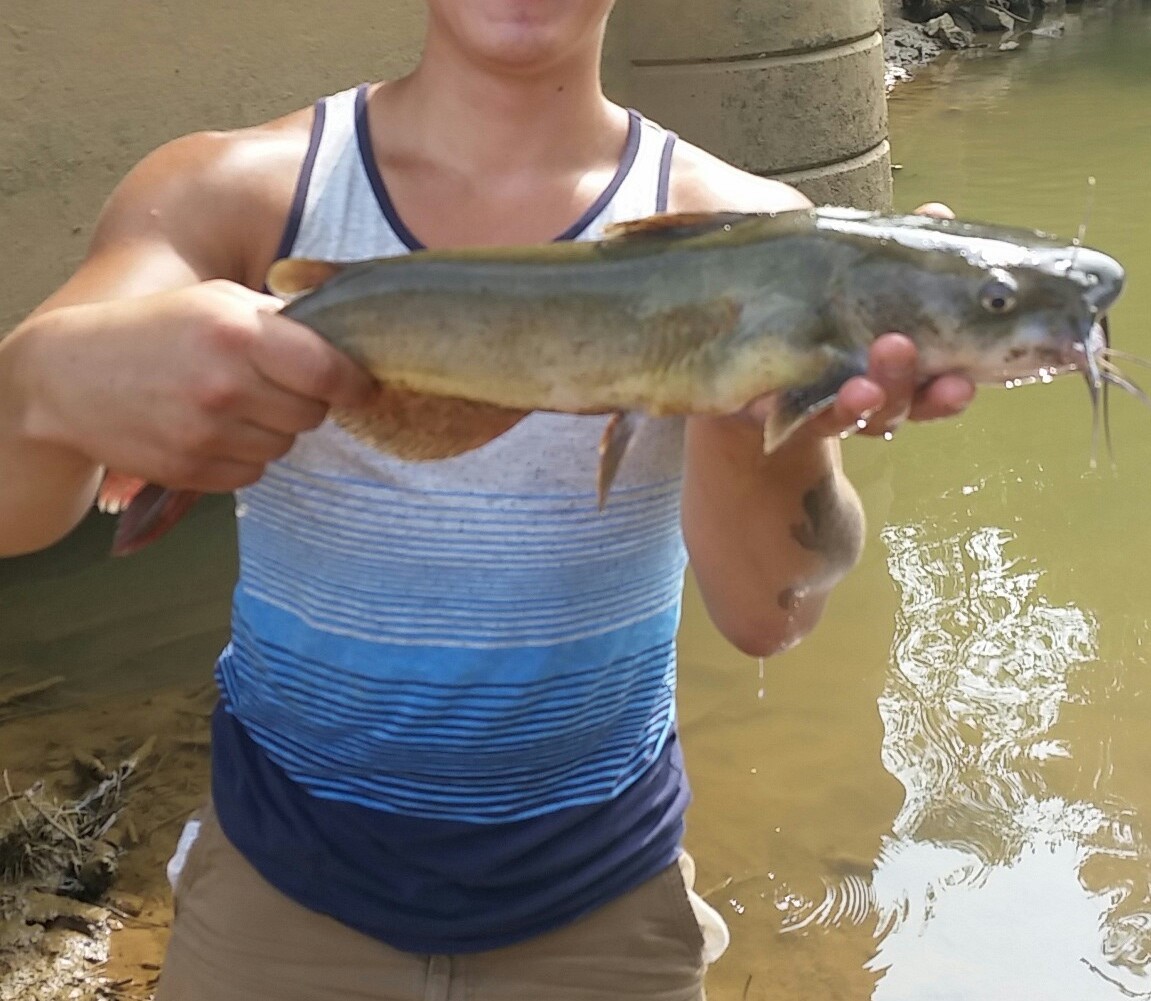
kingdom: Animalia
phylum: Chordata
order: Siluriformes
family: Ictaluridae
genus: Ictalurus
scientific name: Ictalurus punctatus
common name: Channel catfish
